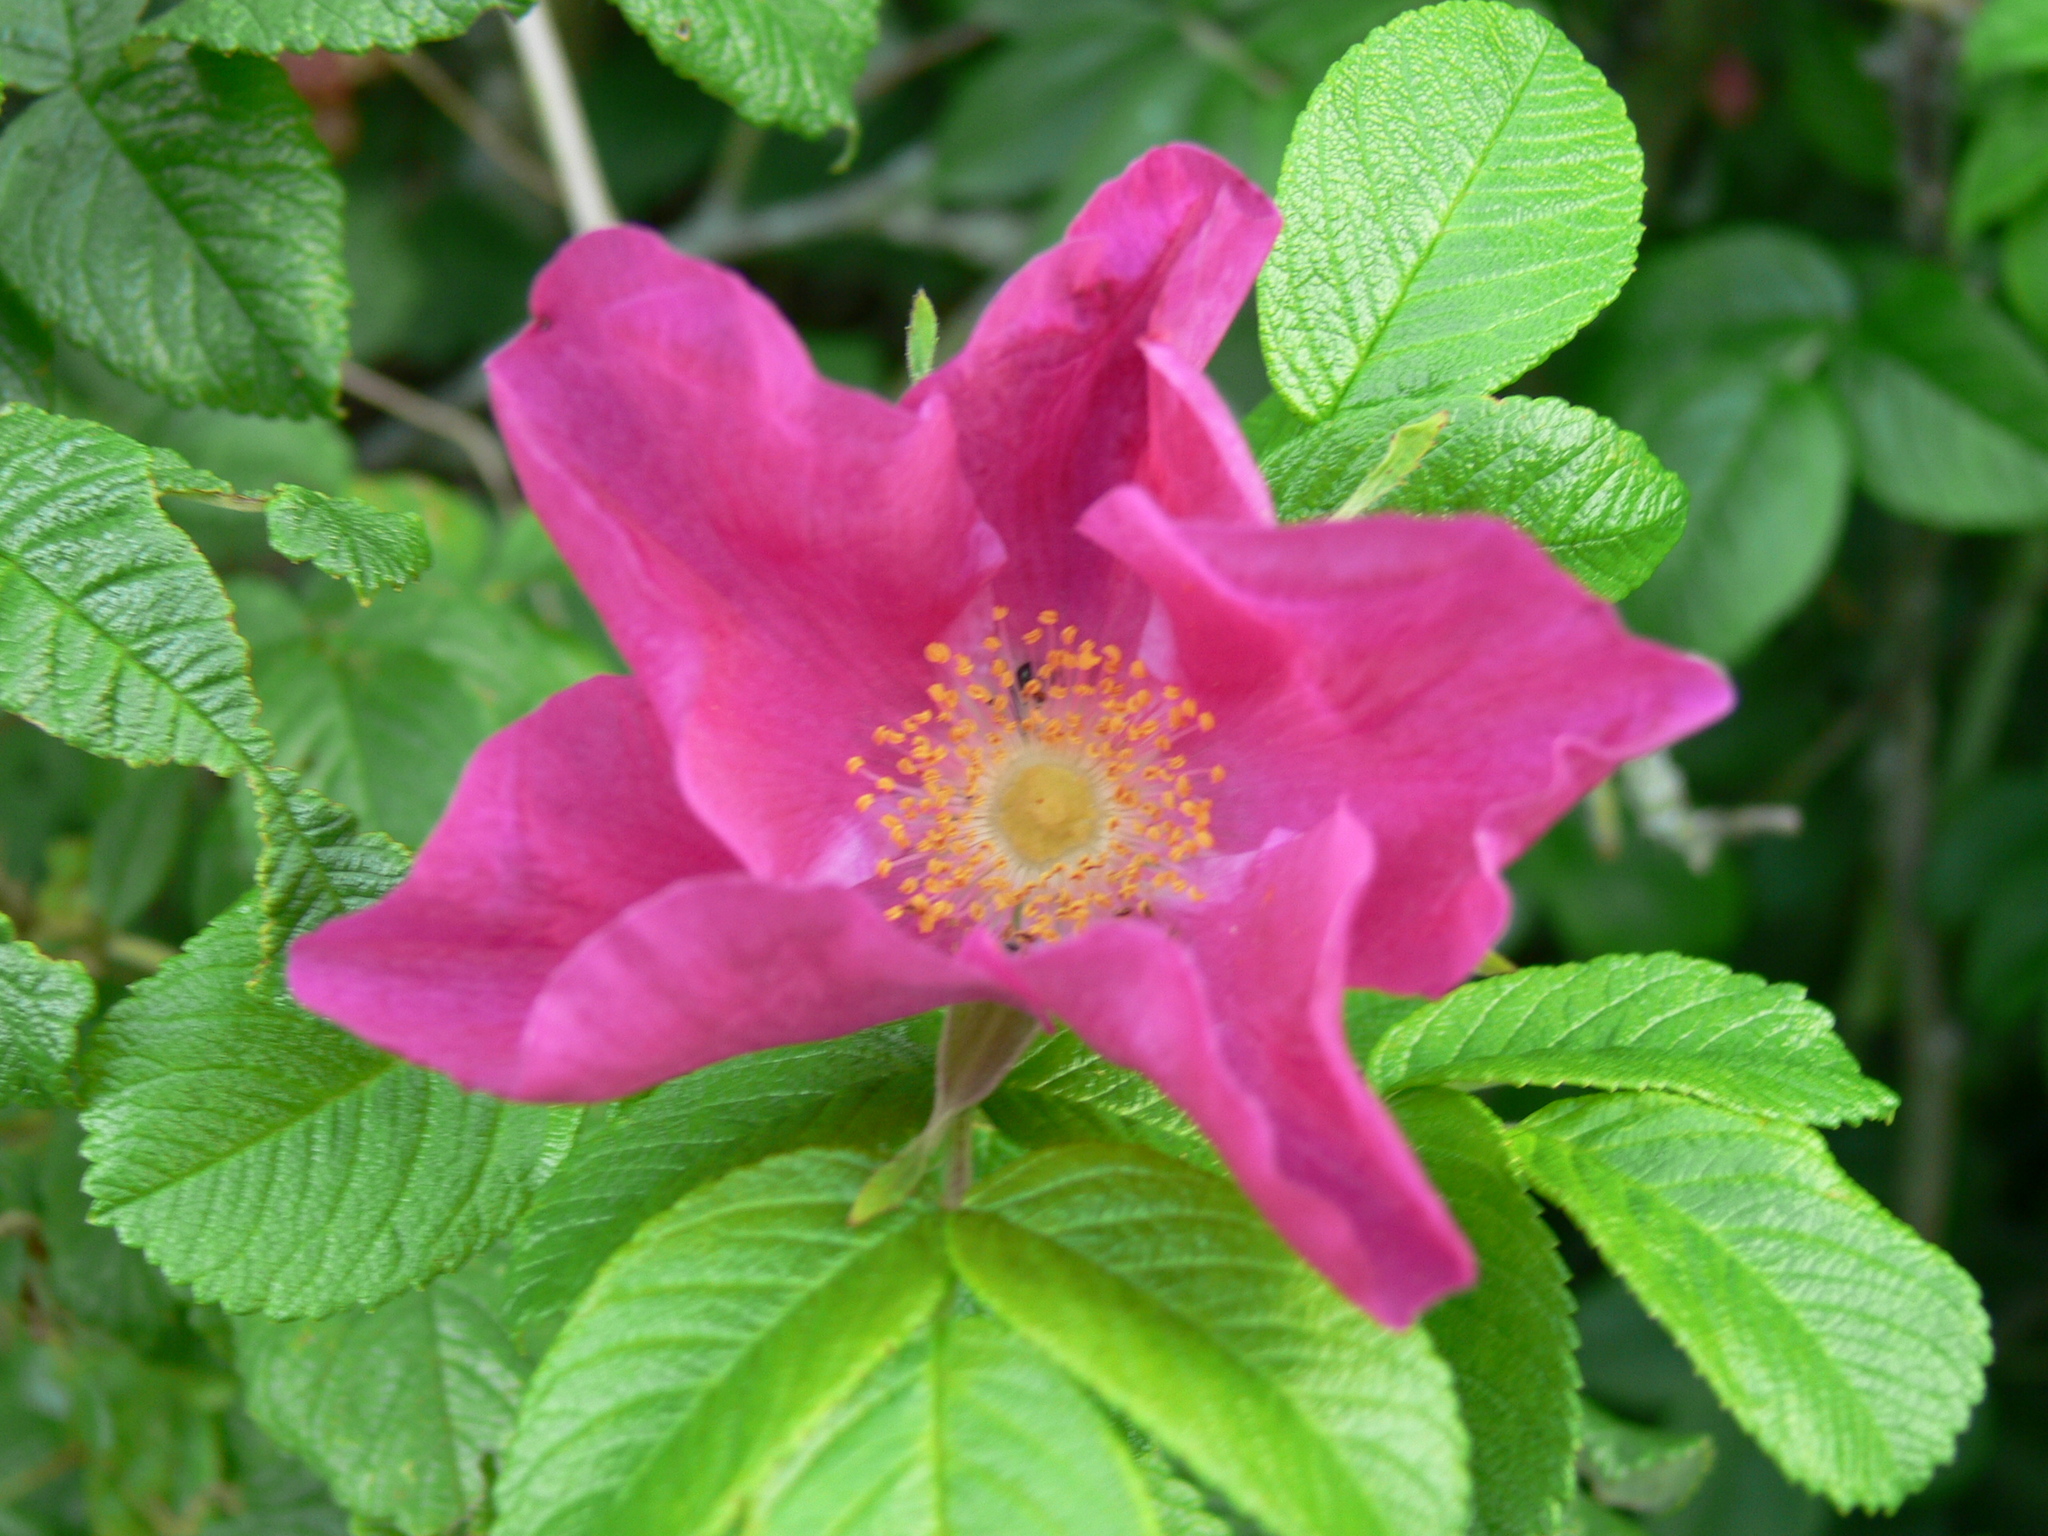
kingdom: Plantae
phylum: Tracheophyta
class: Magnoliopsida
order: Rosales
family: Rosaceae
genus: Rosa
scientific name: Rosa rugosa
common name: Japanese rose
